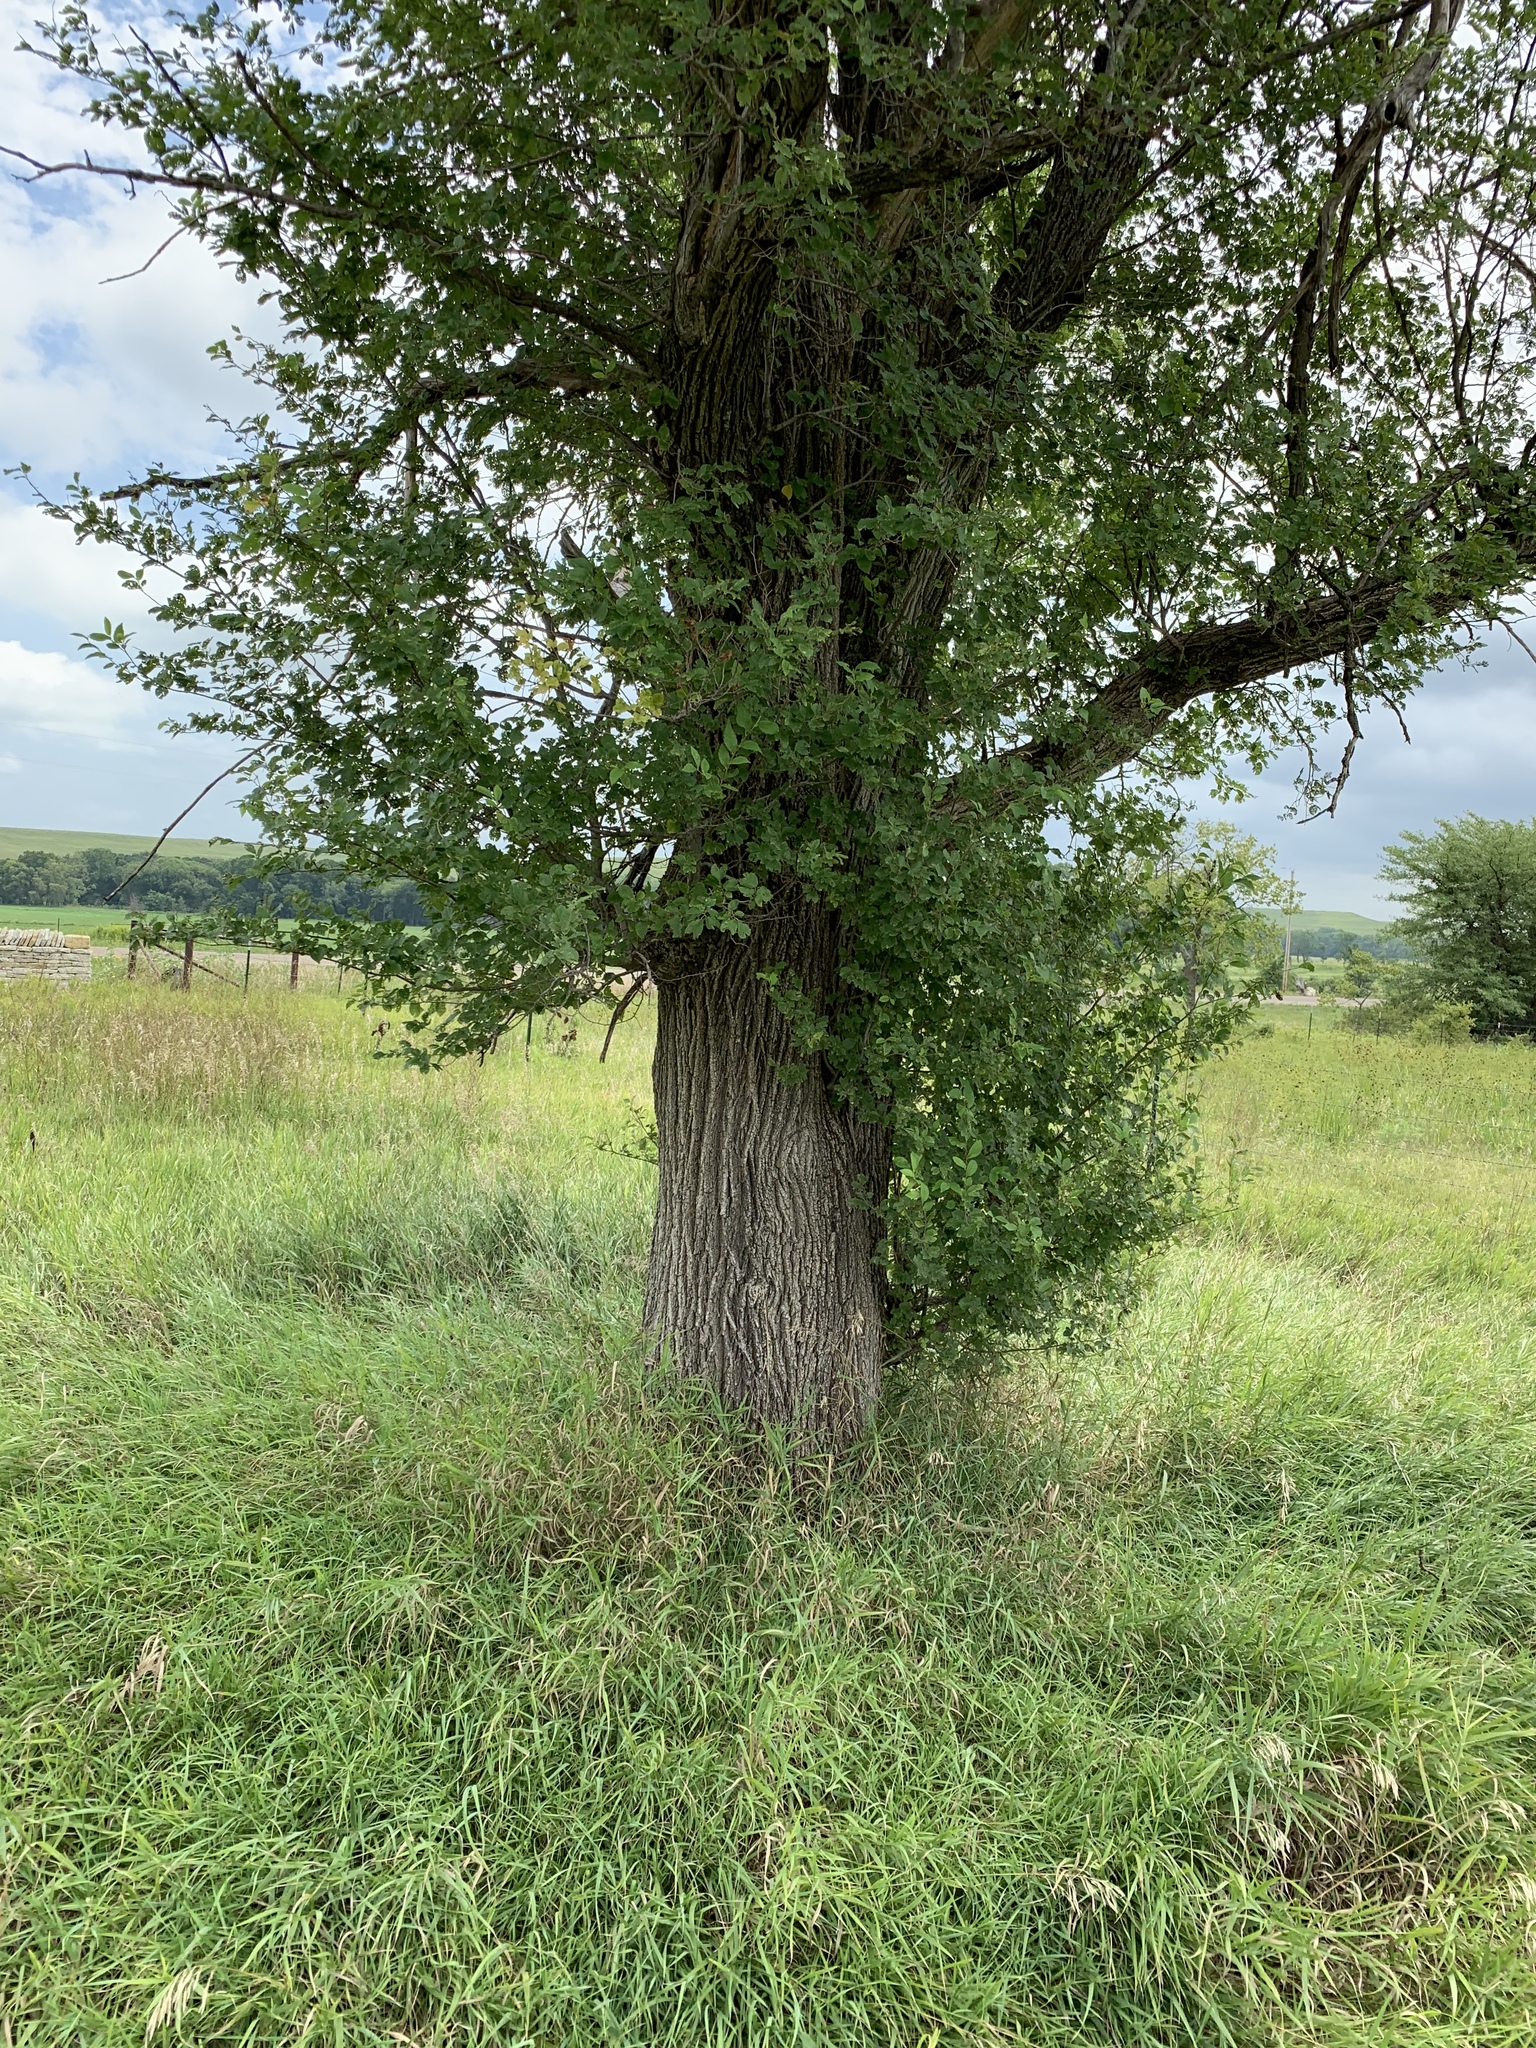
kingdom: Plantae
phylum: Tracheophyta
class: Magnoliopsida
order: Rosales
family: Ulmaceae
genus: Ulmus
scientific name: Ulmus pumila
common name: Siberian elm
